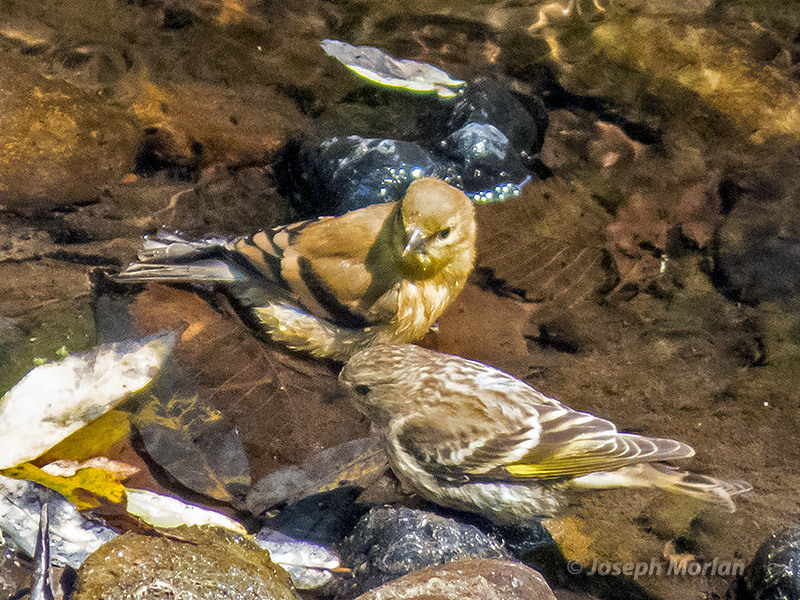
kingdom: Animalia
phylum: Chordata
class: Aves
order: Passeriformes
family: Fringillidae
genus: Spinus
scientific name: Spinus pinus
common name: Pine siskin
